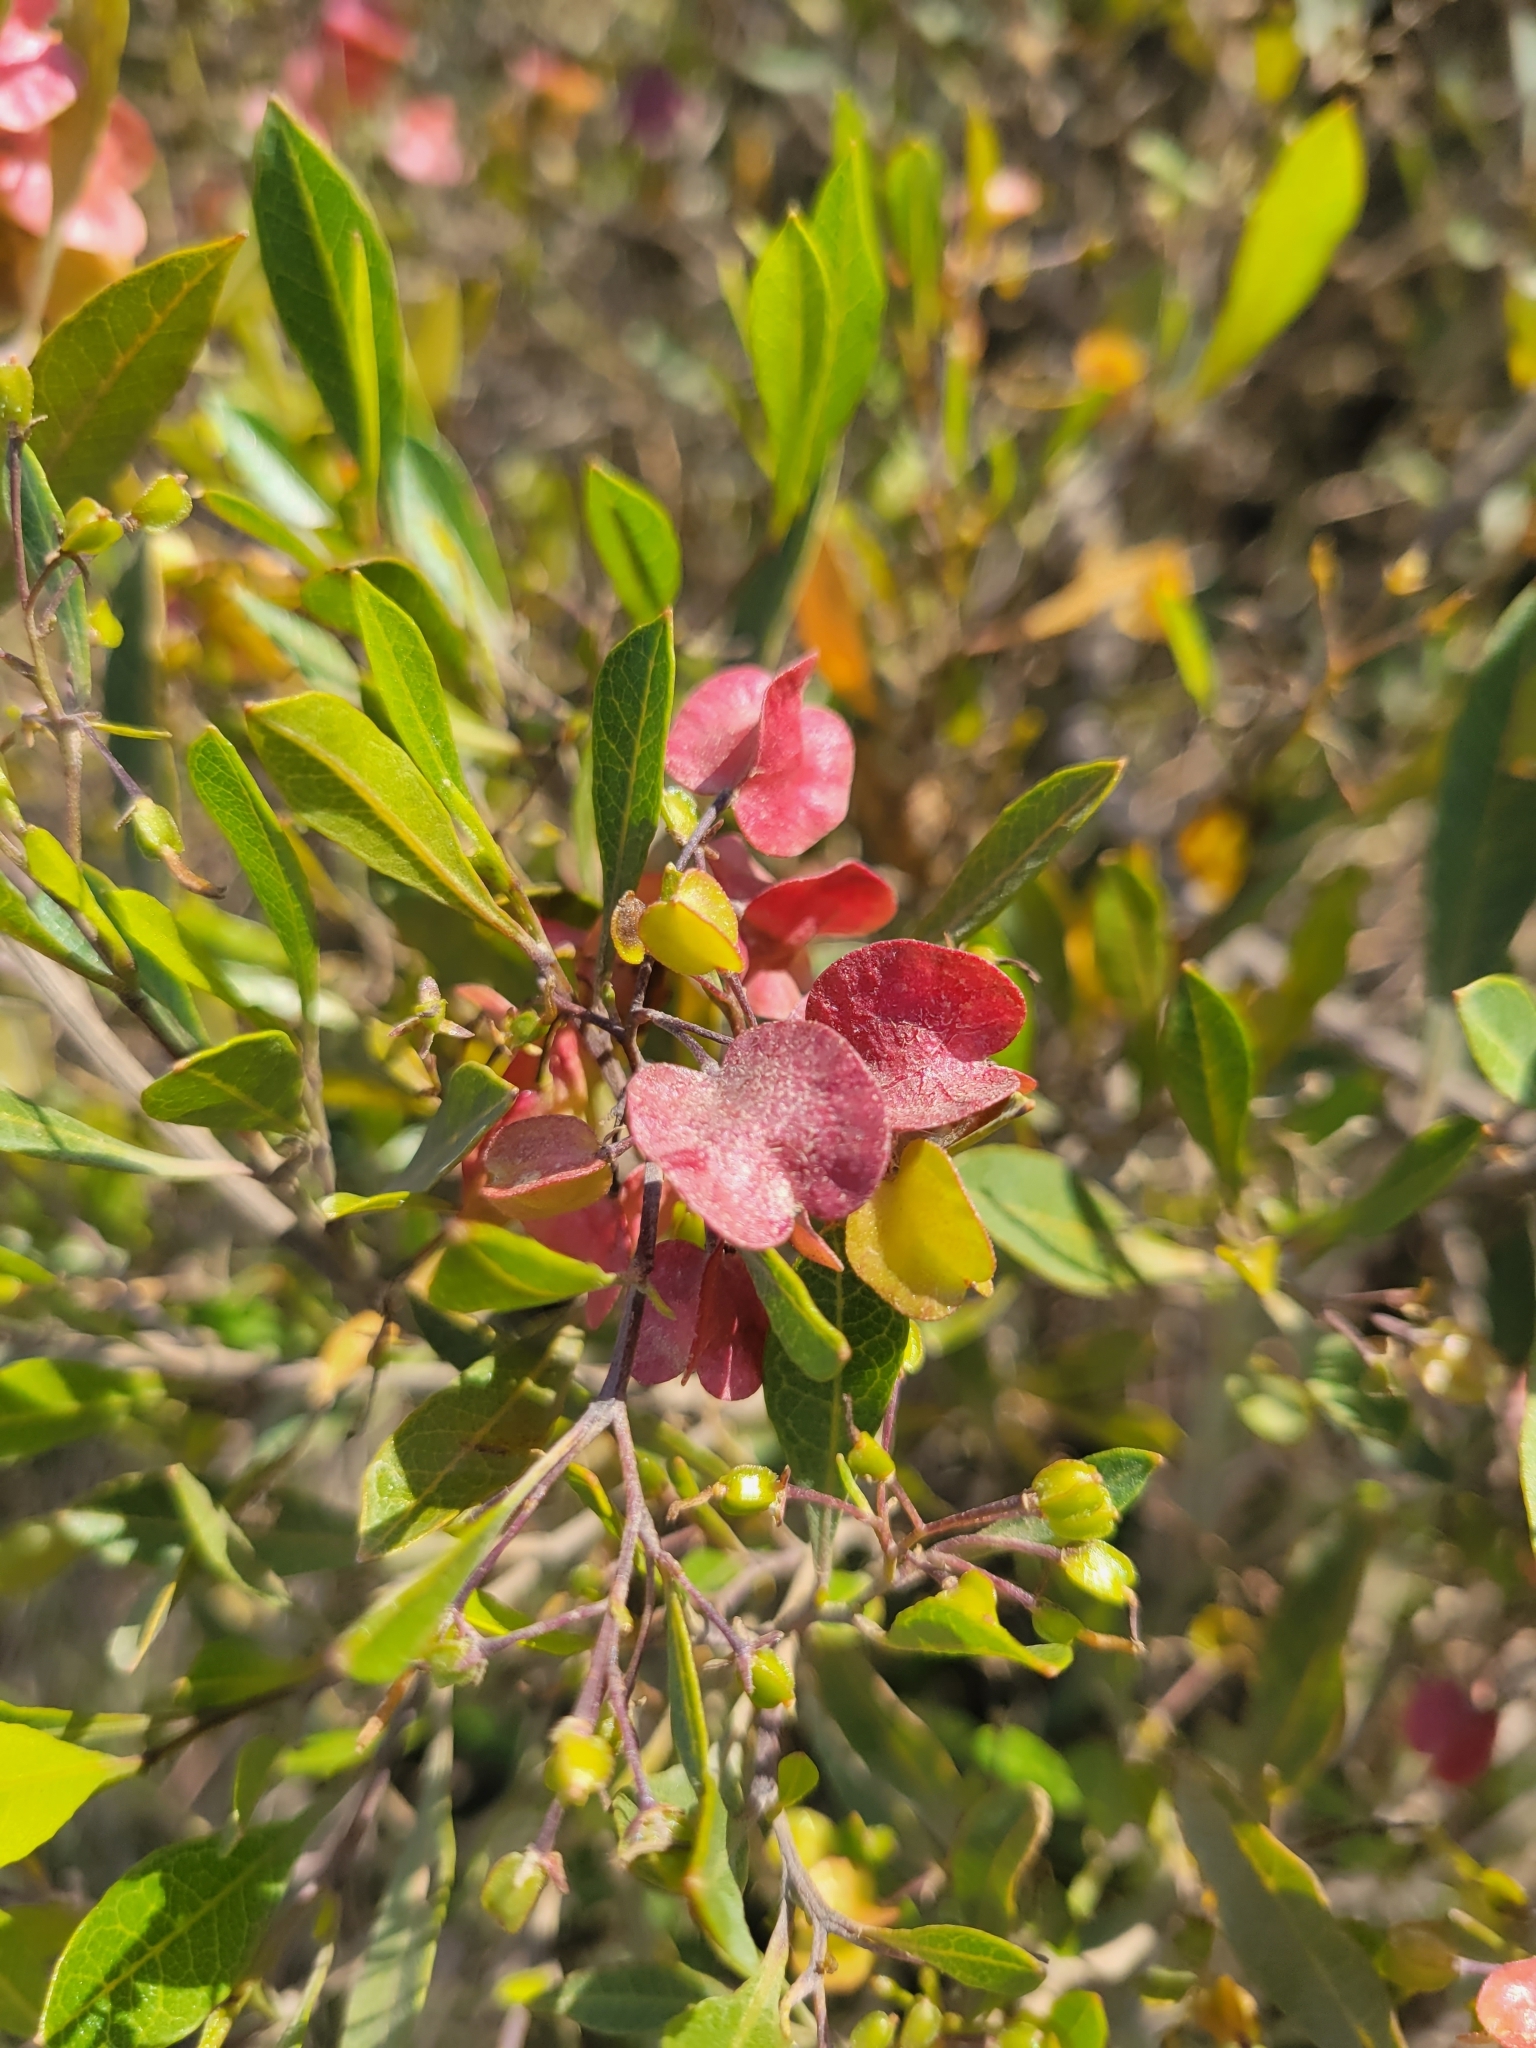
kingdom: Plantae
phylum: Tracheophyta
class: Magnoliopsida
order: Sapindales
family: Sapindaceae
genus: Dodonaea
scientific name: Dodonaea viscosa
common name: Hopbush
